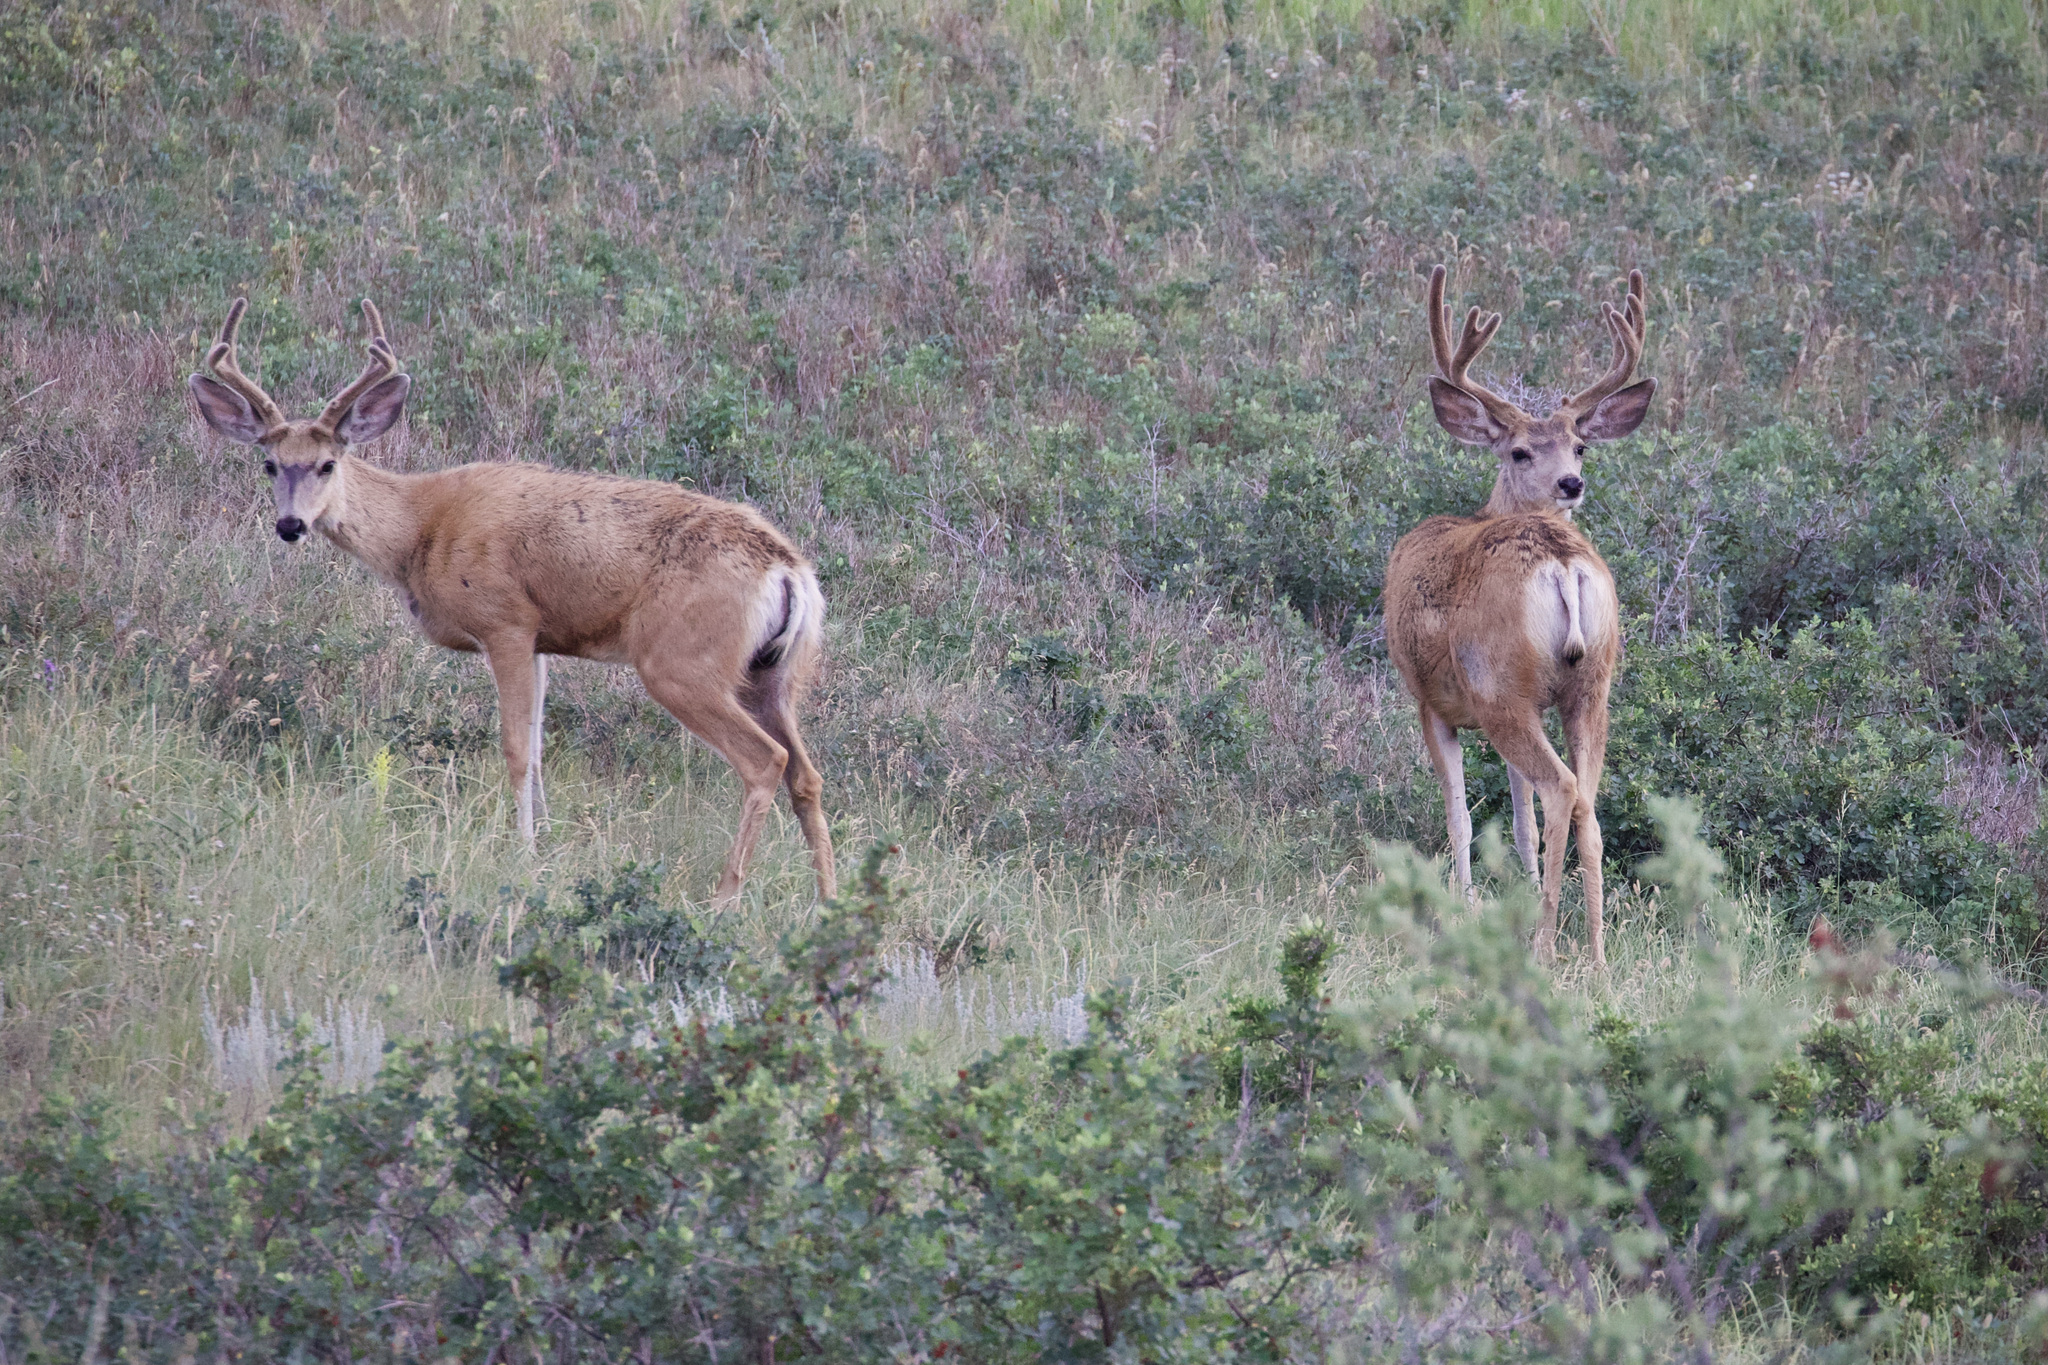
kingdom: Animalia
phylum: Chordata
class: Mammalia
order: Artiodactyla
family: Cervidae
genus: Odocoileus
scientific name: Odocoileus hemionus
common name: Mule deer
